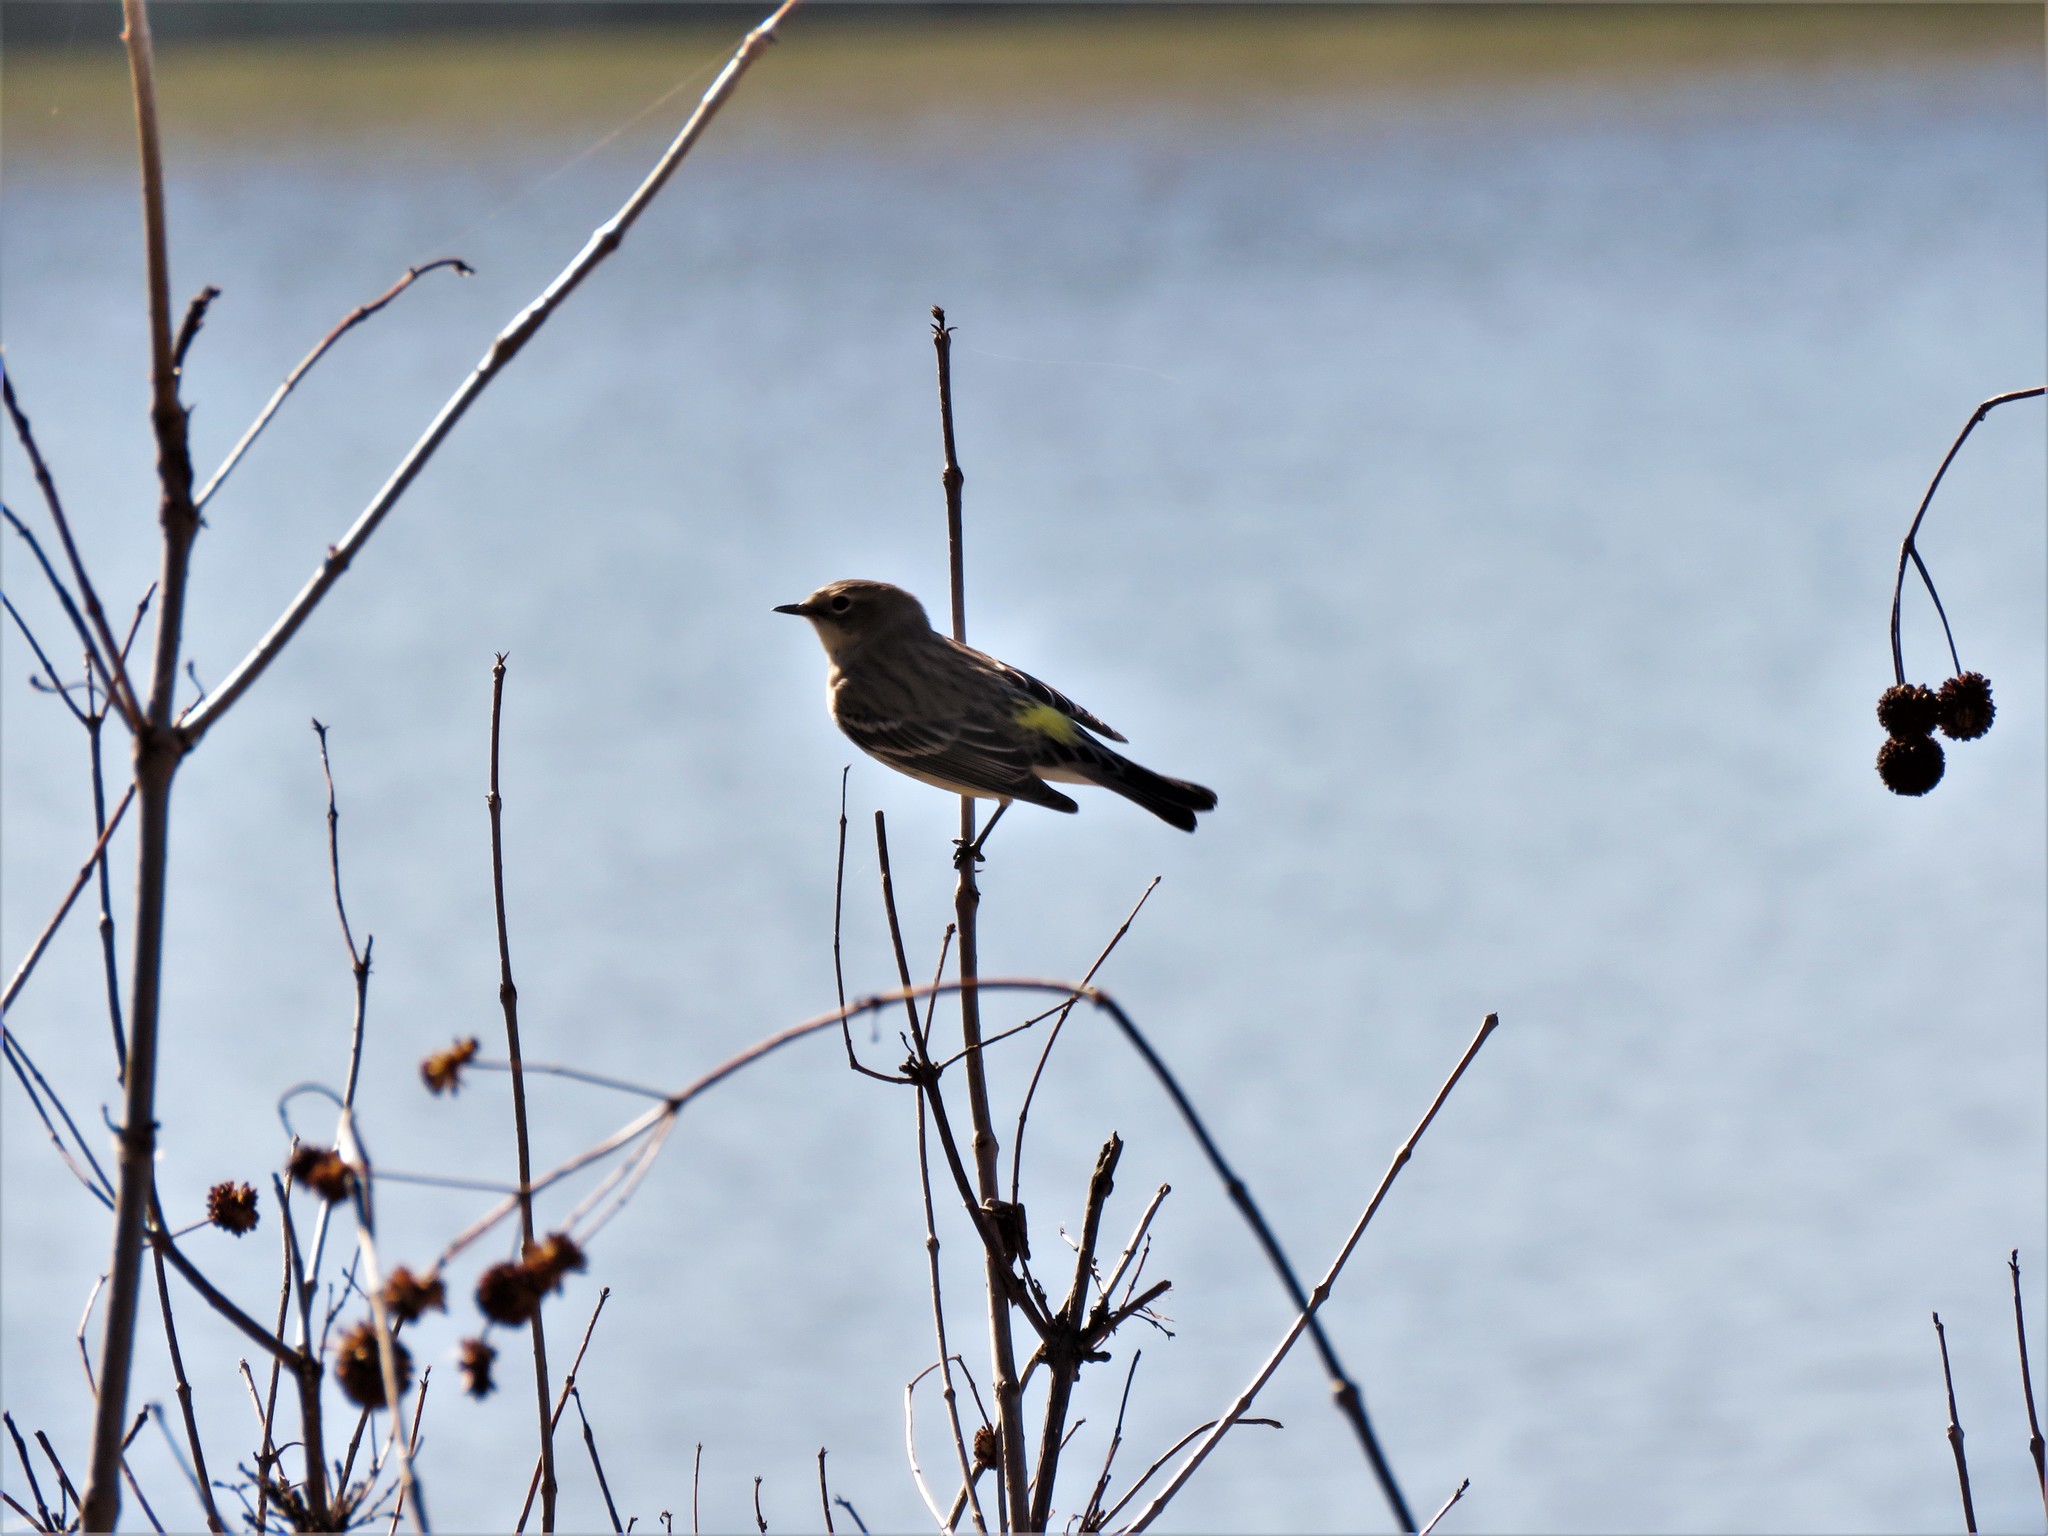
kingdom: Animalia
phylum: Chordata
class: Aves
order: Passeriformes
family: Parulidae
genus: Setophaga
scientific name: Setophaga coronata
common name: Myrtle warbler
